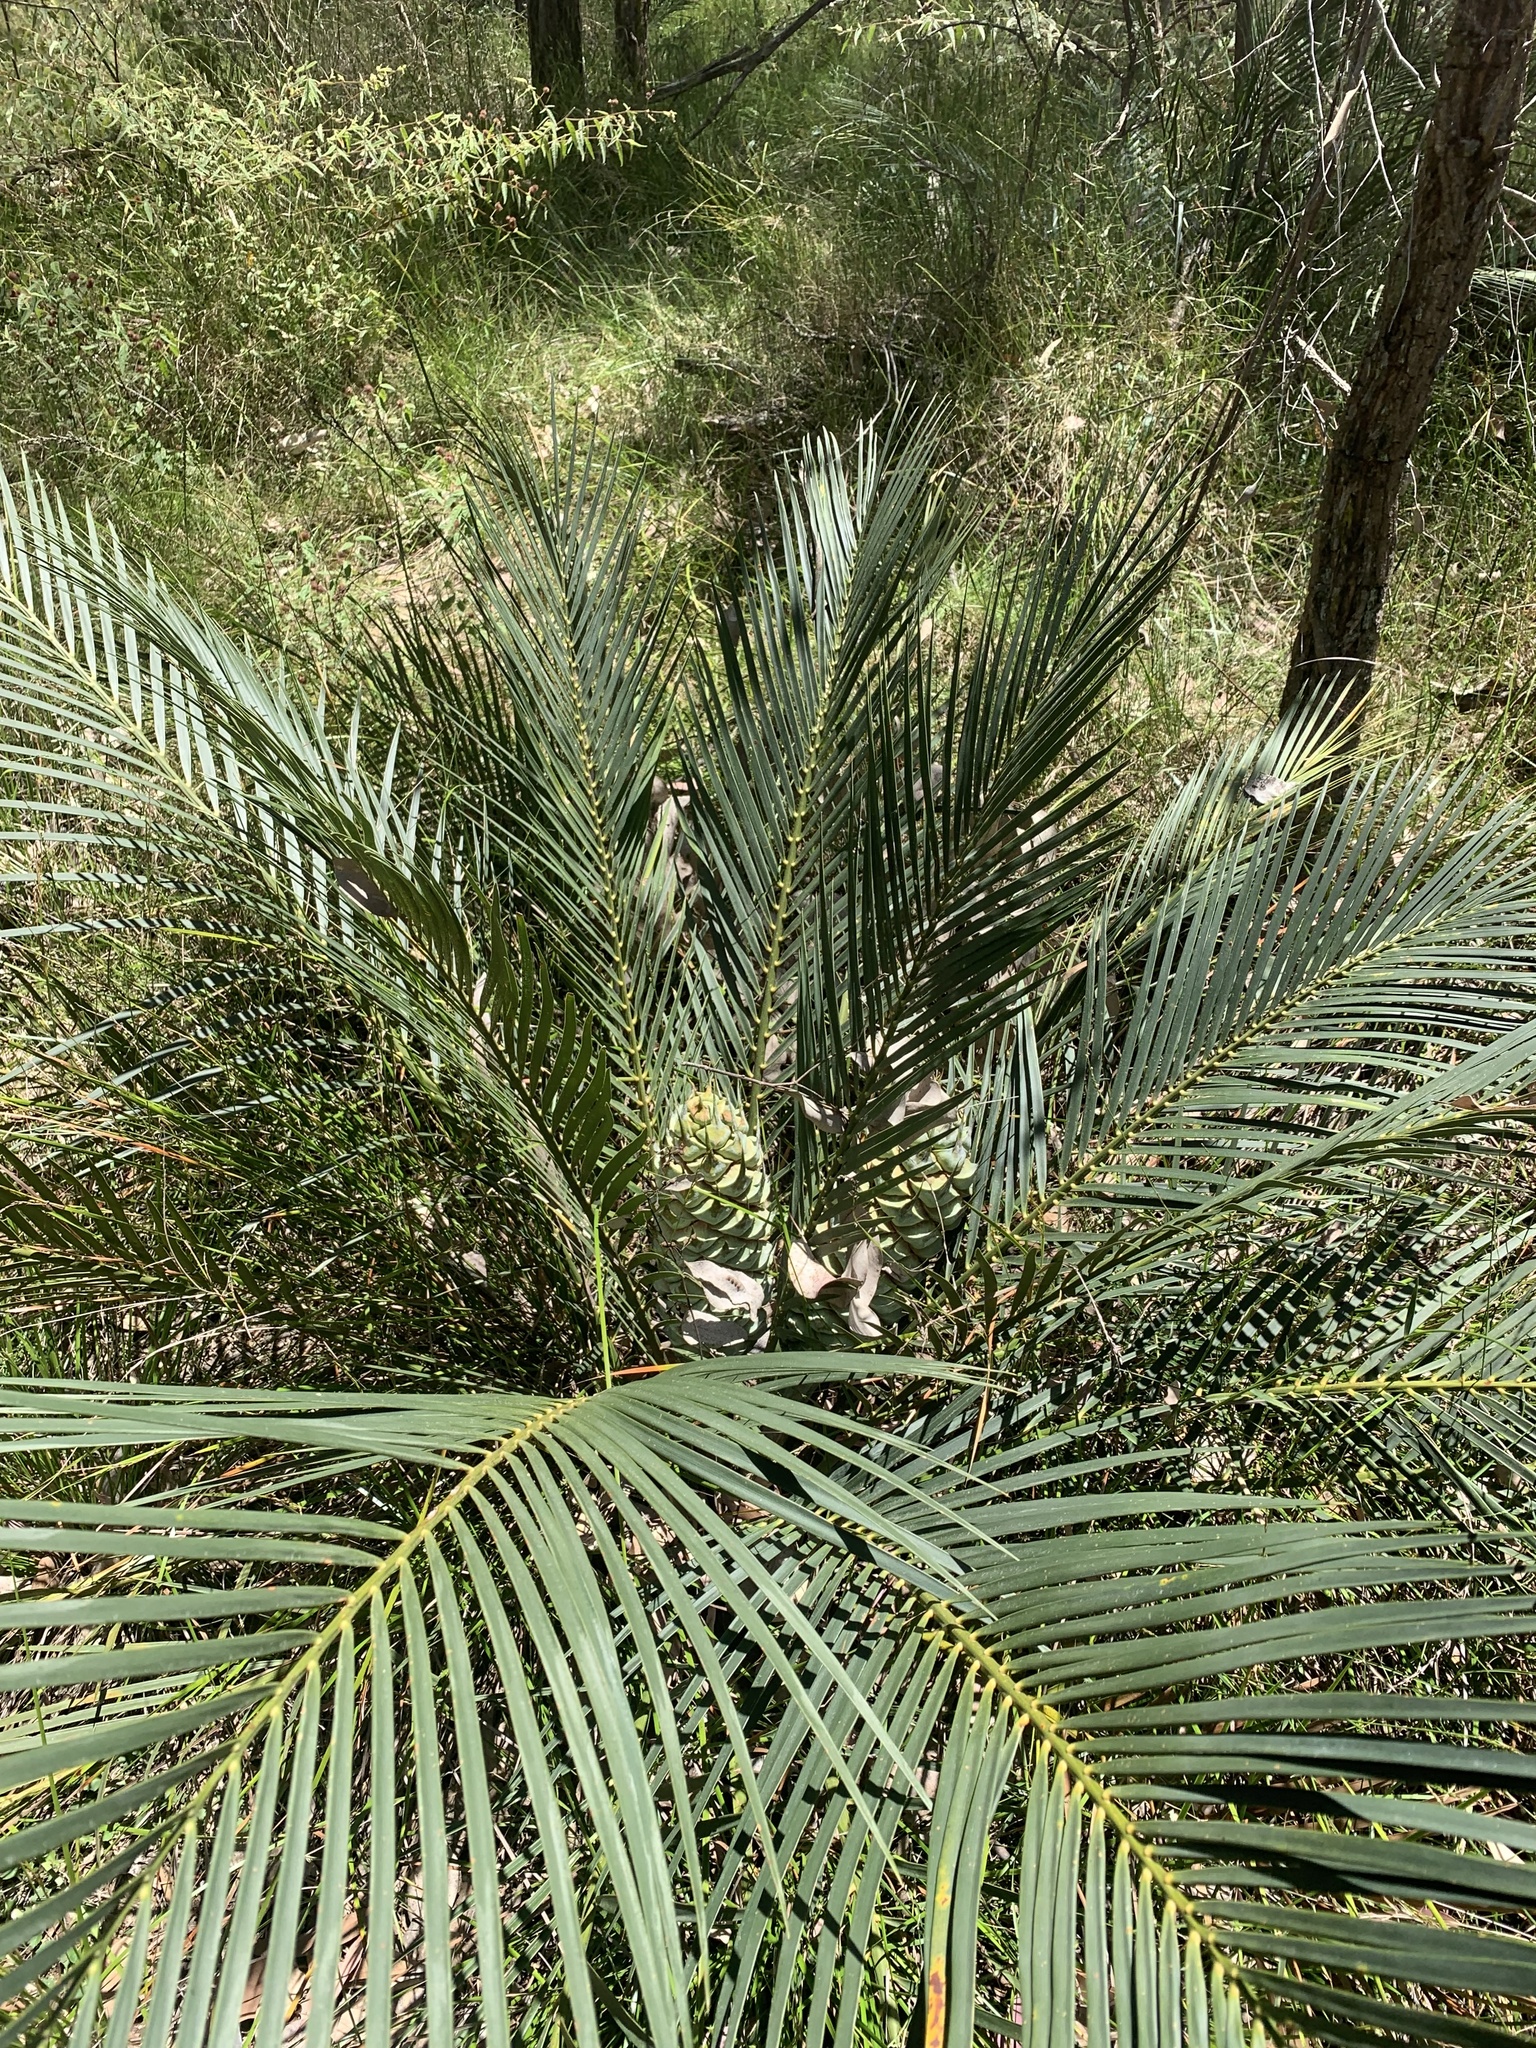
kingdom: Plantae
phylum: Tracheophyta
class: Cycadopsida
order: Cycadales
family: Zamiaceae
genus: Macrozamia
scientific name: Macrozamia reducta
